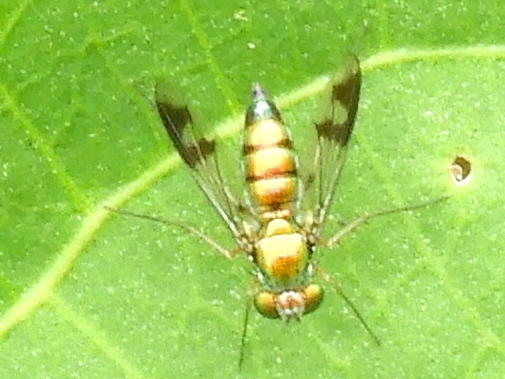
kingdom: Animalia
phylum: Arthropoda
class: Insecta
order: Diptera
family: Dolichopodidae
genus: Condylostylus
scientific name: Condylostylus
